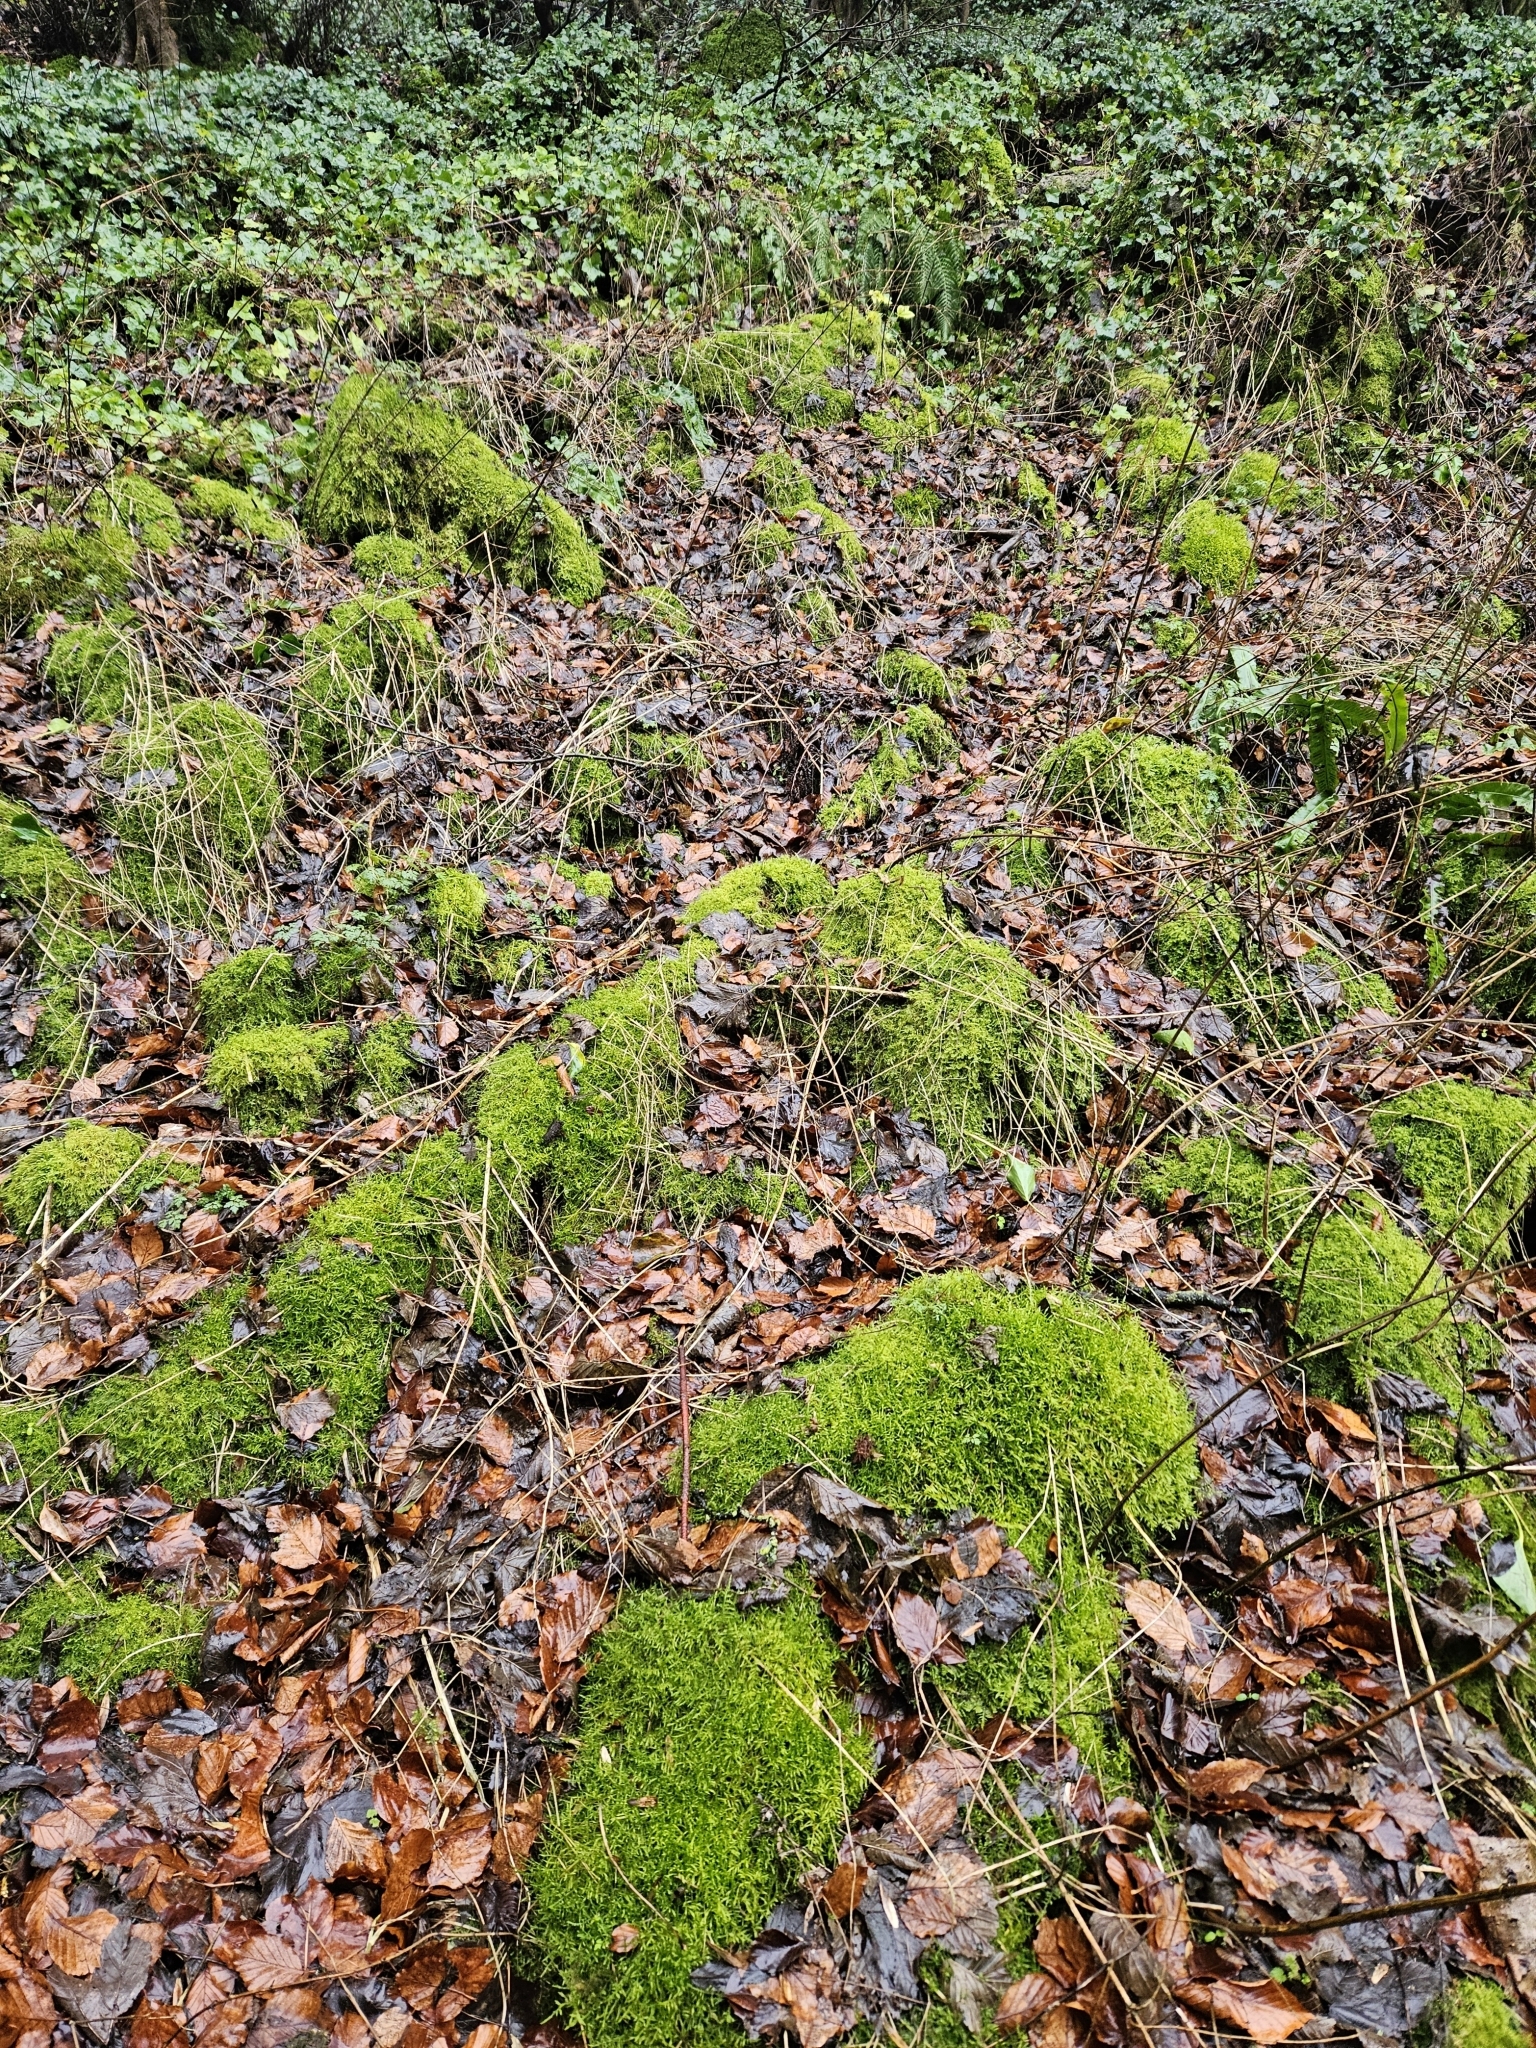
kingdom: Plantae
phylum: Bryophyta
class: Bryopsida
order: Hypnales
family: Pylaisiaceae
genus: Calliergonella
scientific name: Calliergonella cuspidata
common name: Common large wetland moss
